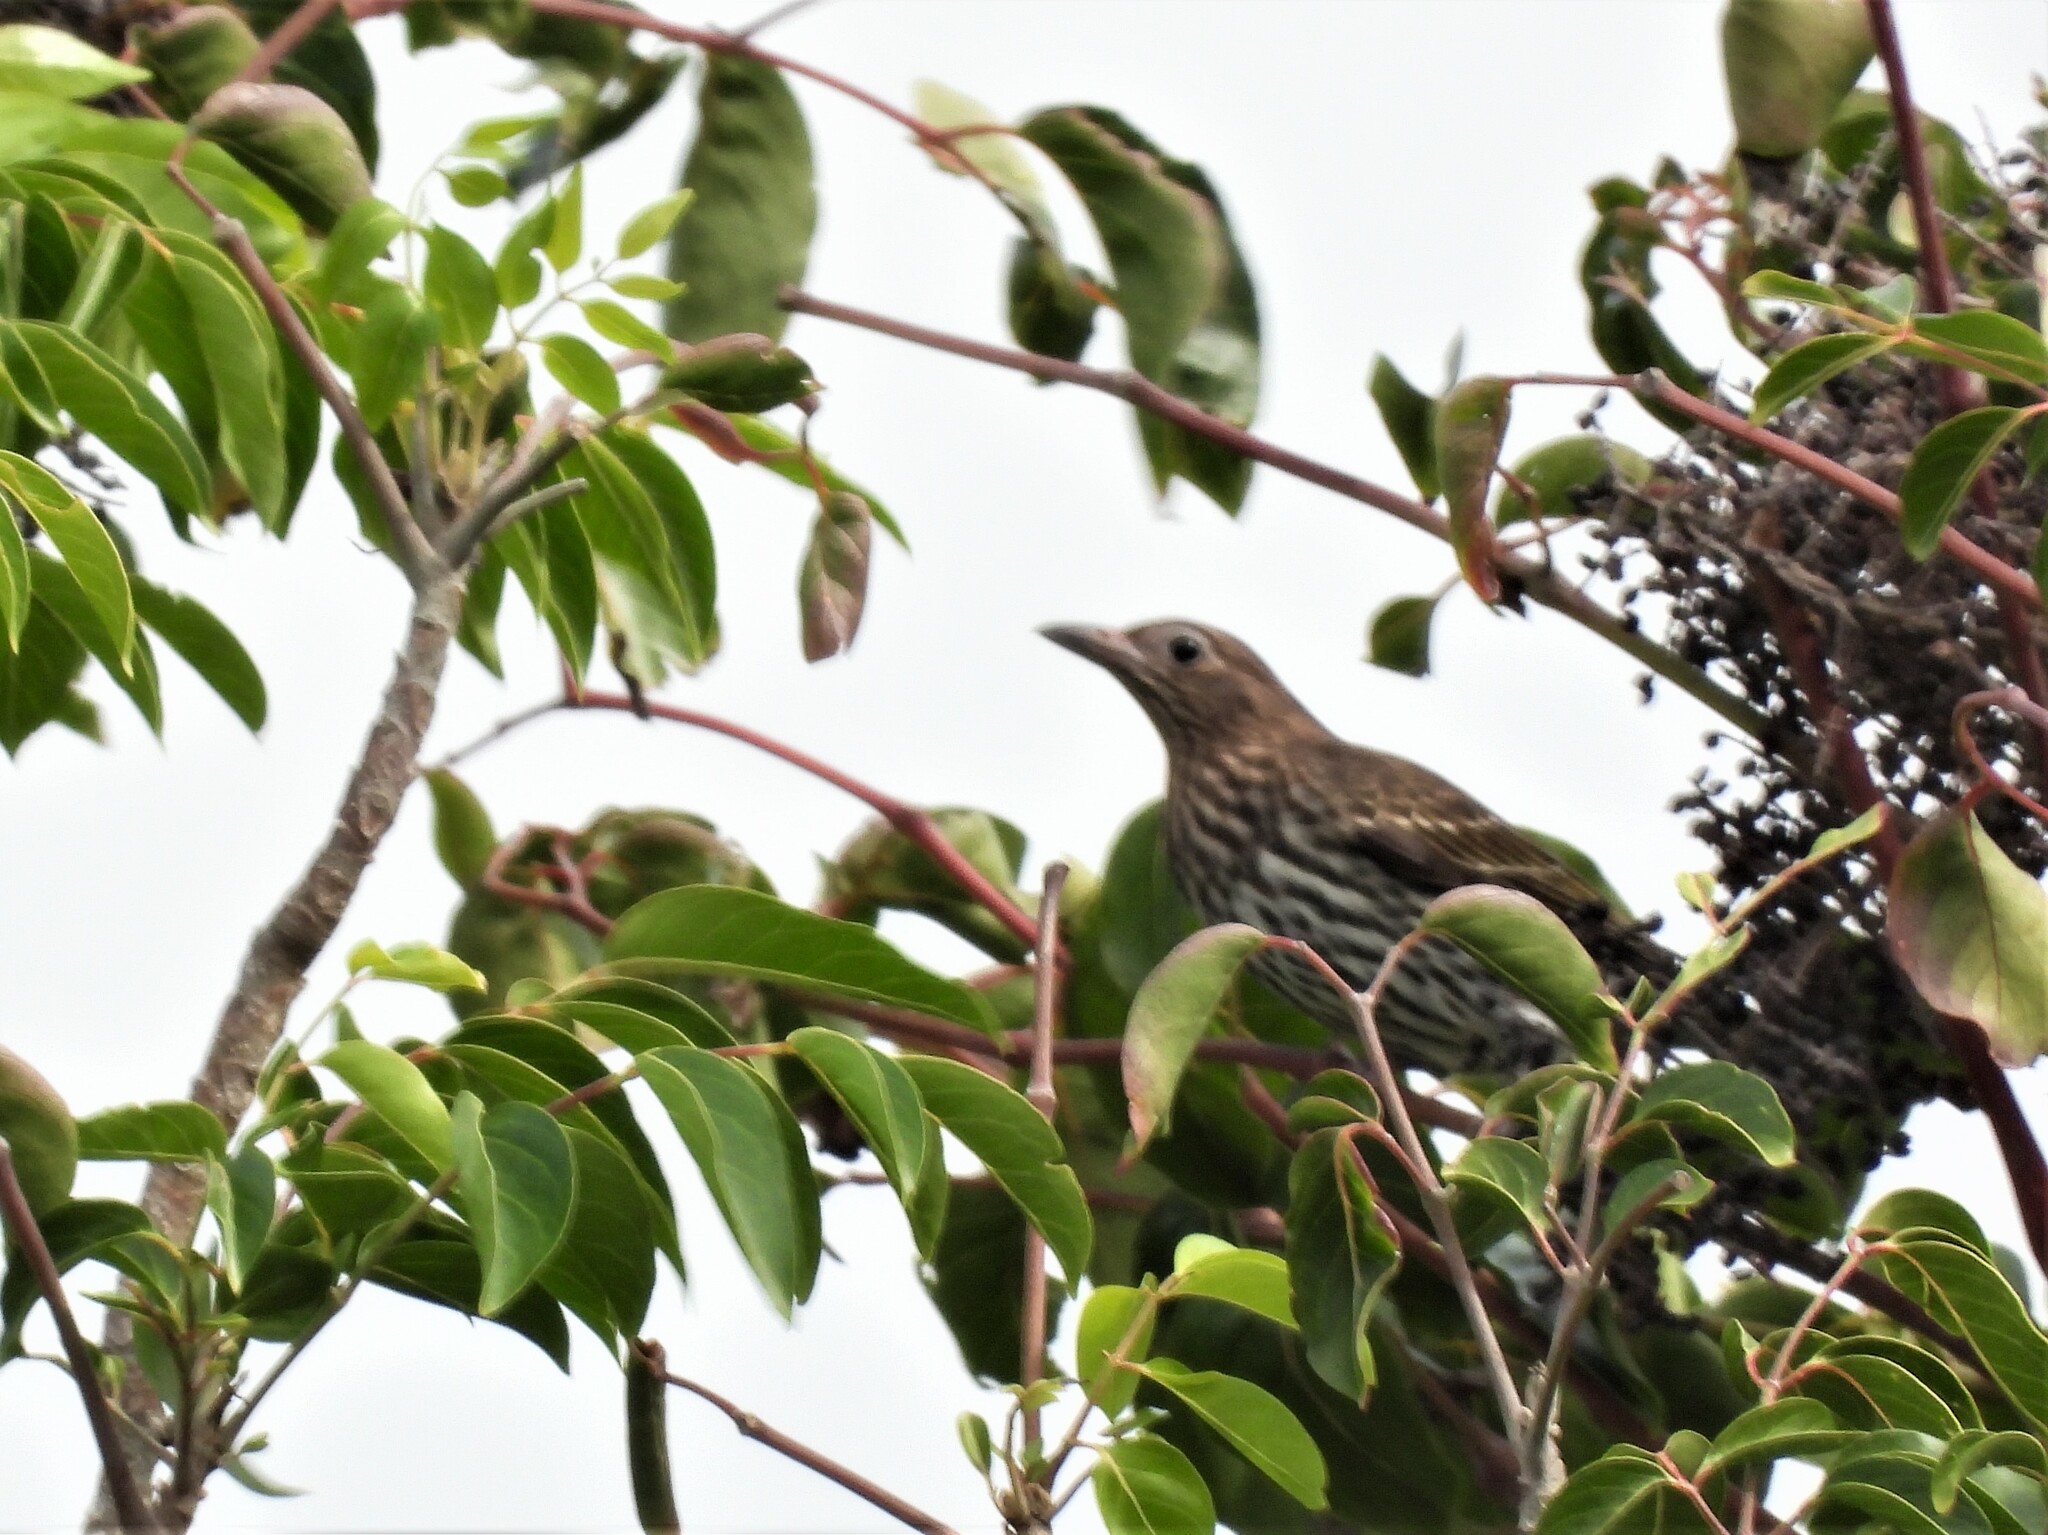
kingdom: Animalia
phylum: Chordata
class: Aves
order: Passeriformes
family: Oriolidae
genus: Sphecotheres
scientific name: Sphecotheres vieilloti
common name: Australasian figbird
